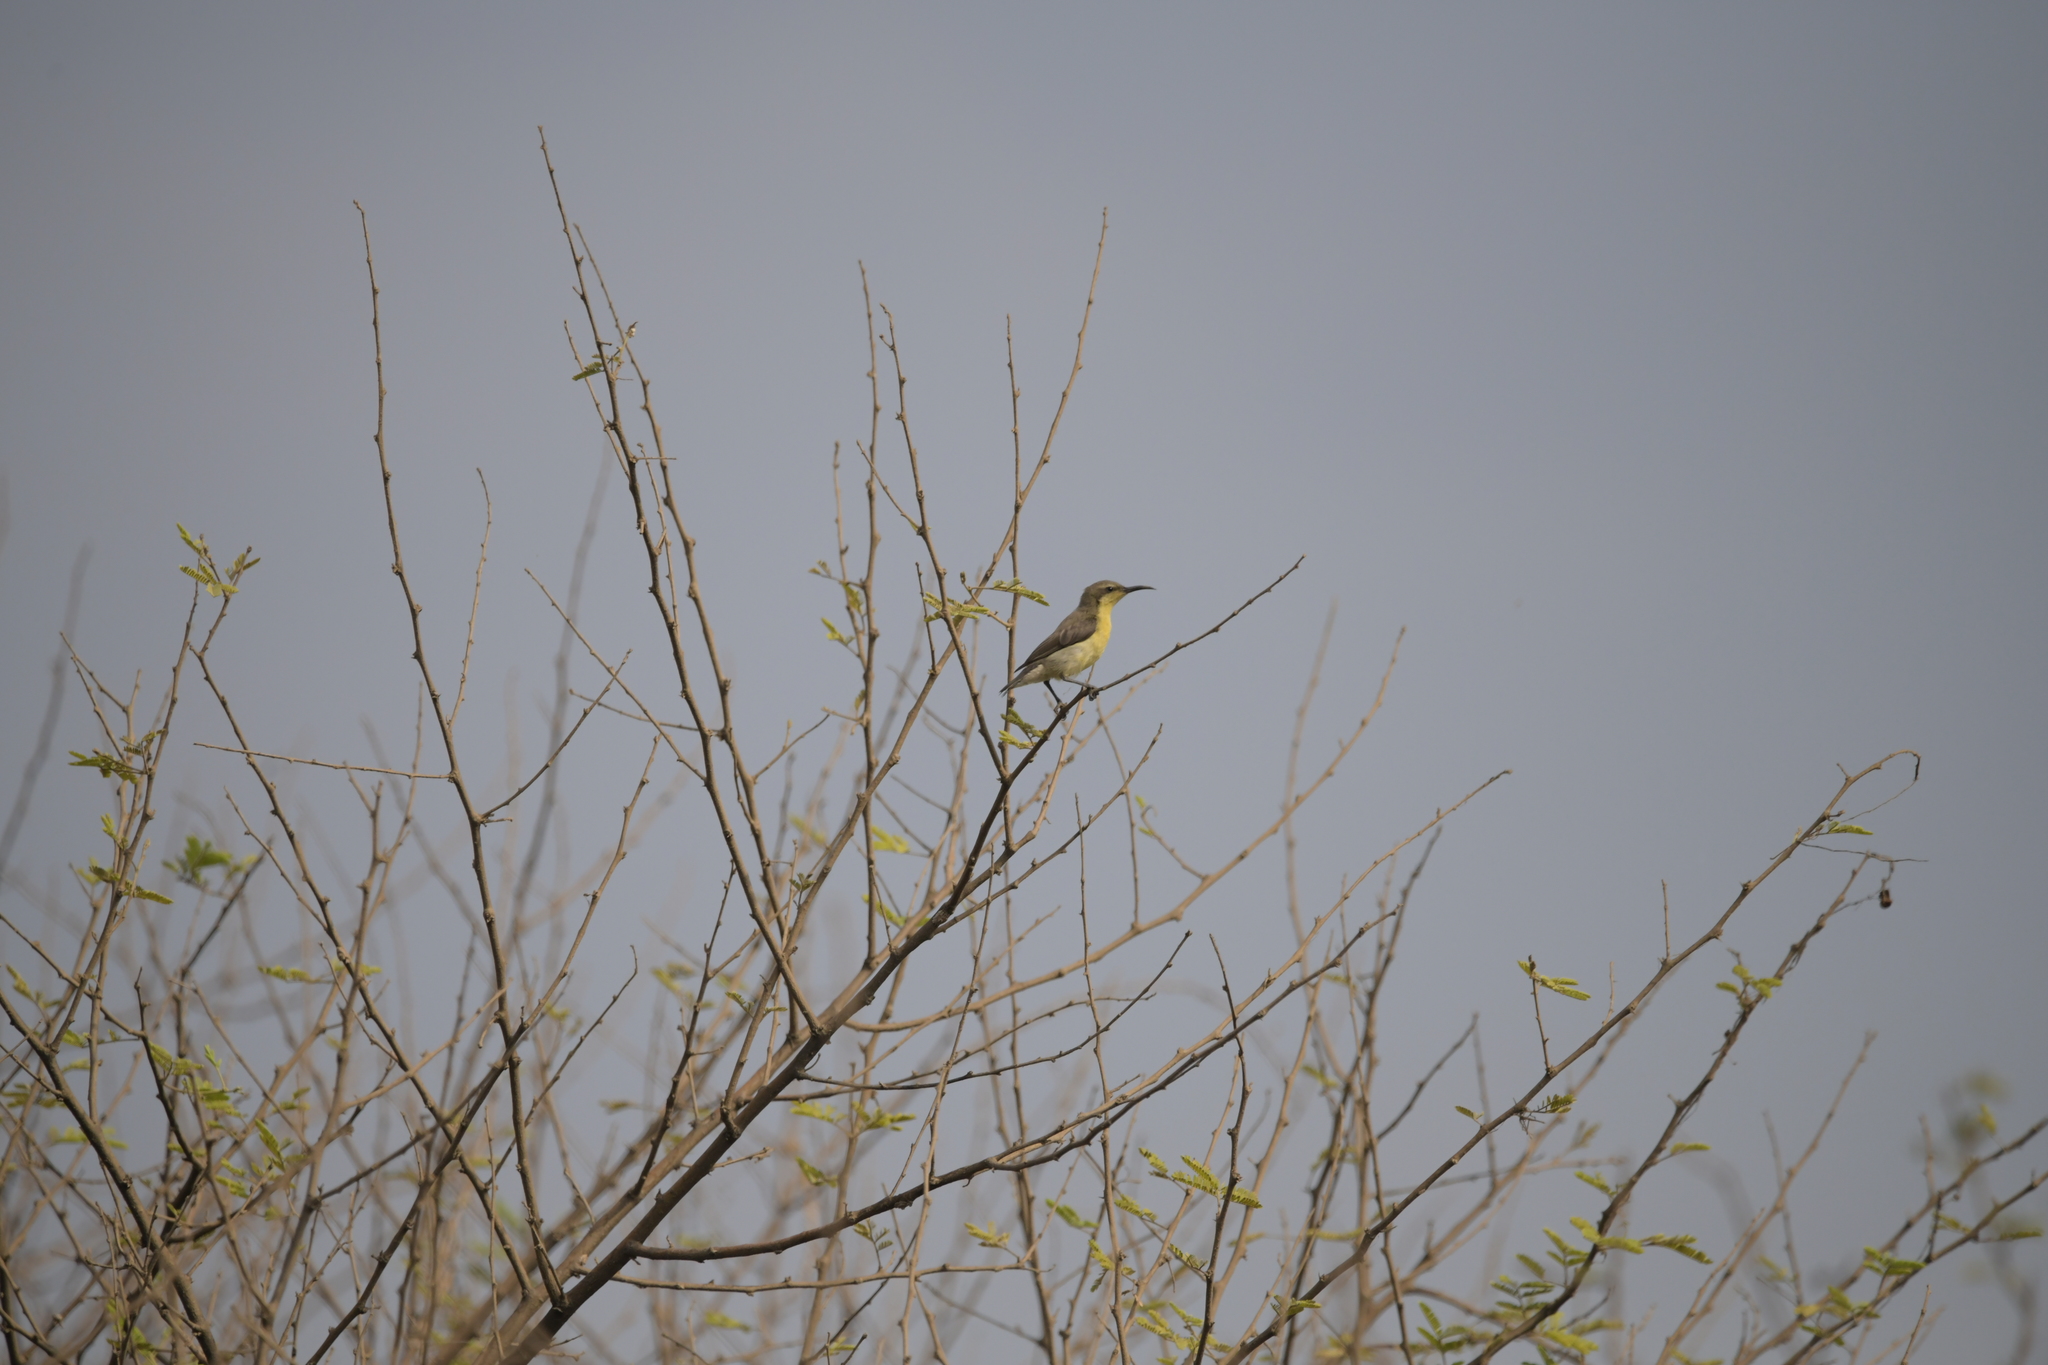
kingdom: Animalia
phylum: Chordata
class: Aves
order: Passeriformes
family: Nectariniidae
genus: Cinnyris
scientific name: Cinnyris asiaticus
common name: Purple sunbird
